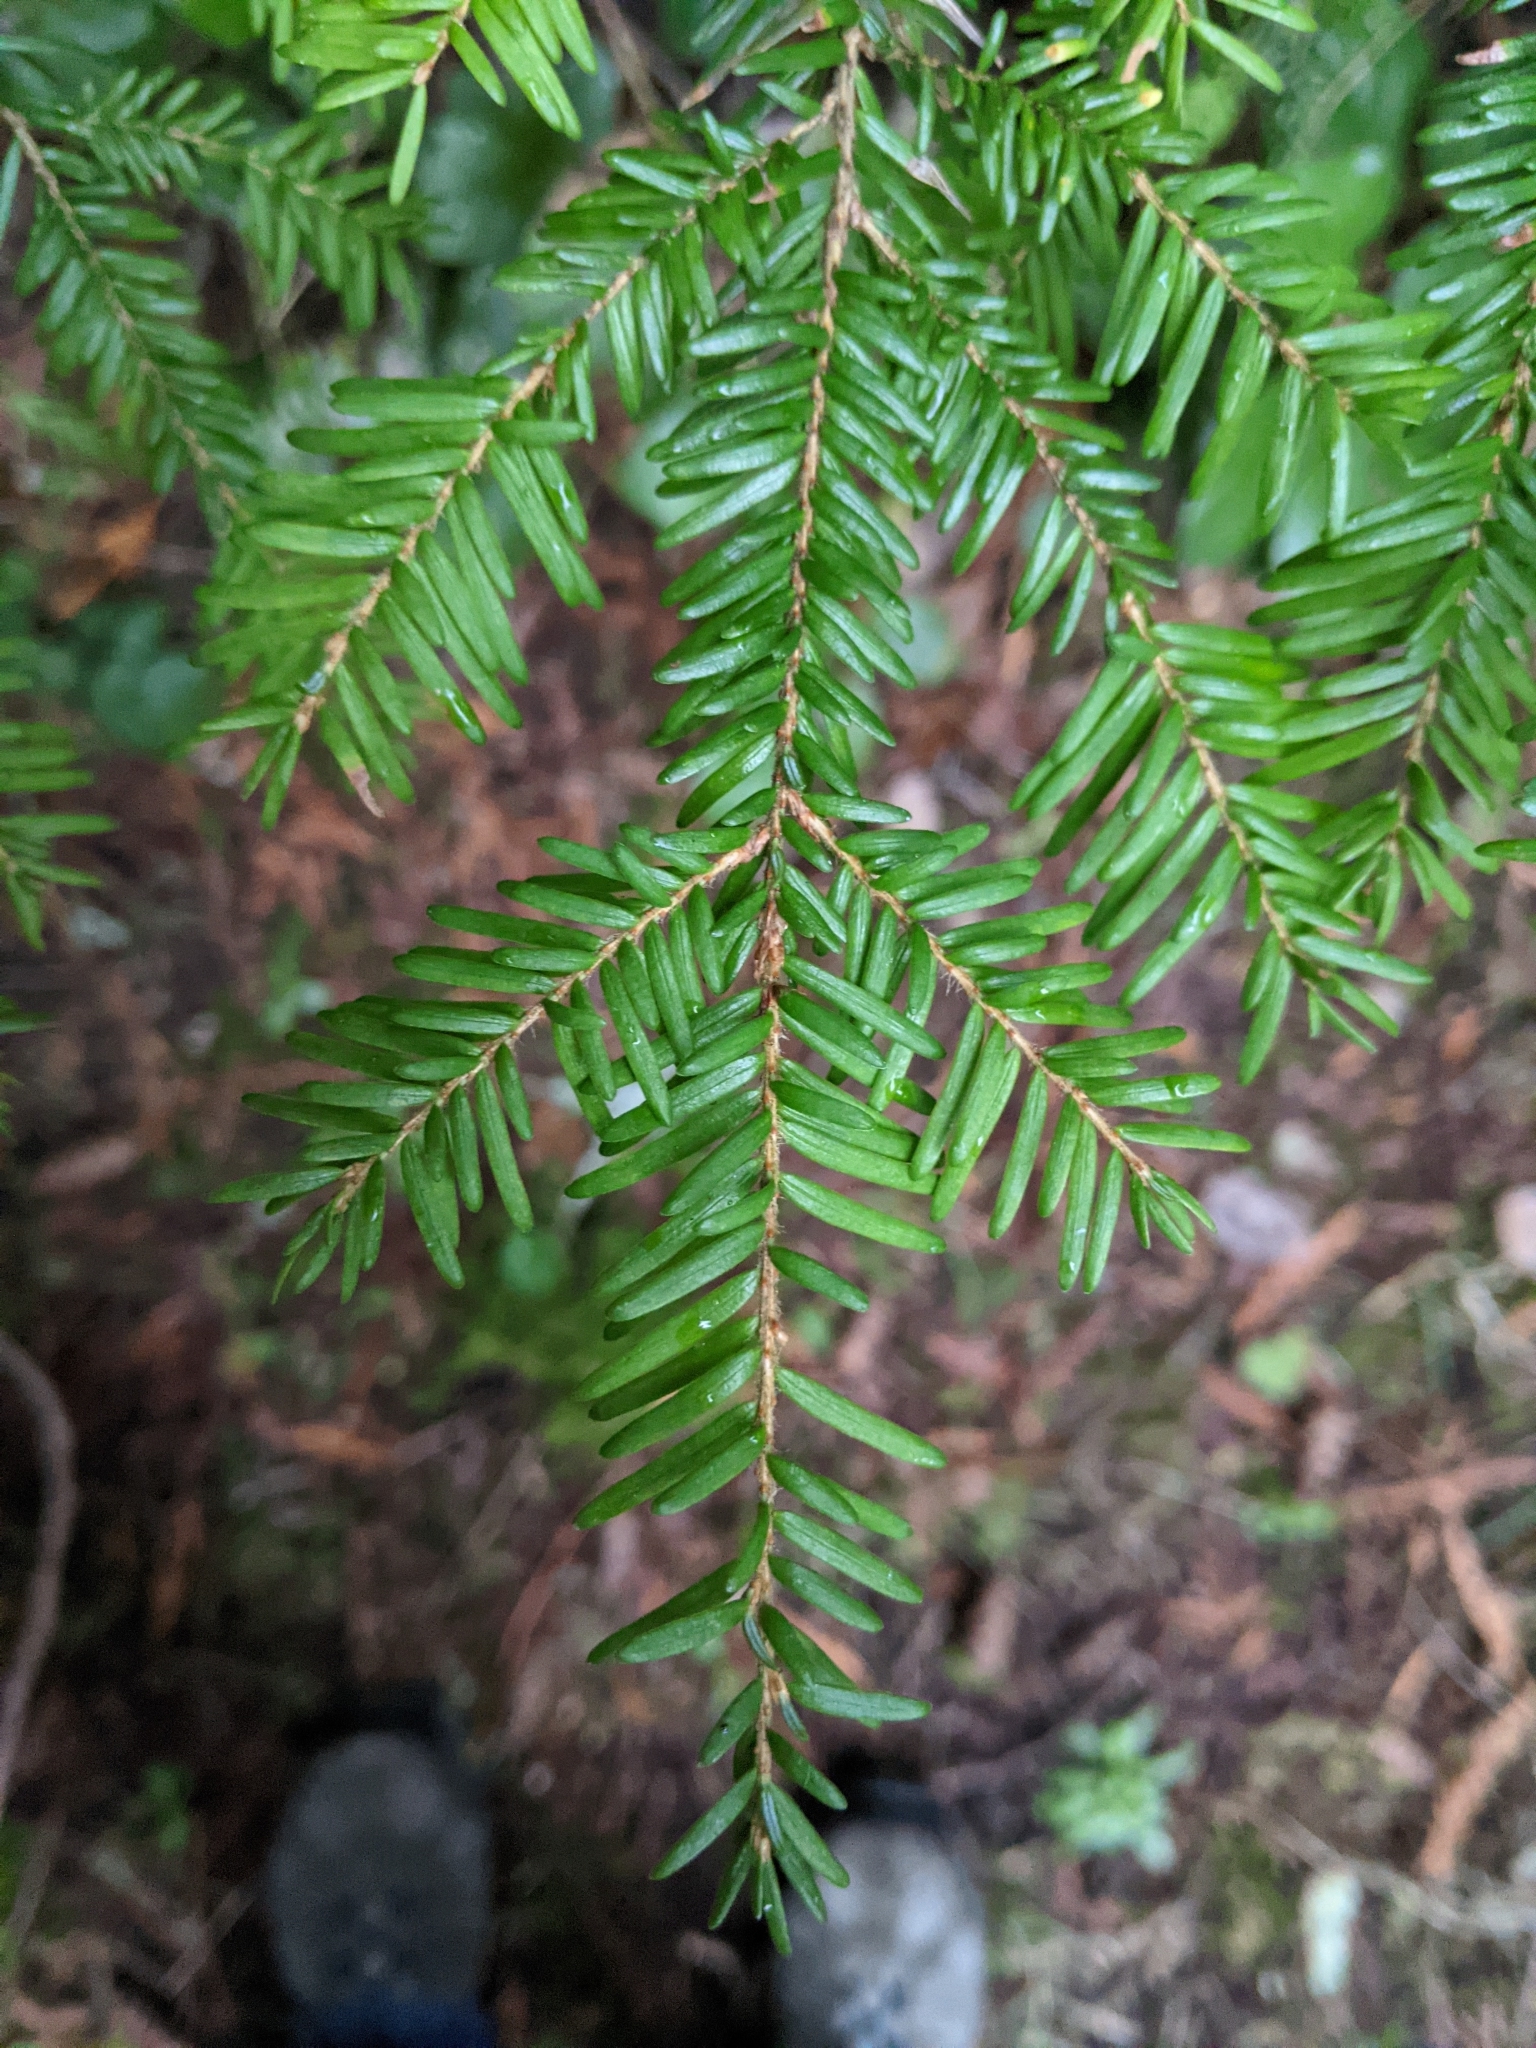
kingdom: Plantae
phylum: Tracheophyta
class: Pinopsida
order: Pinales
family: Pinaceae
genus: Tsuga
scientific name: Tsuga heterophylla
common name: Western hemlock
